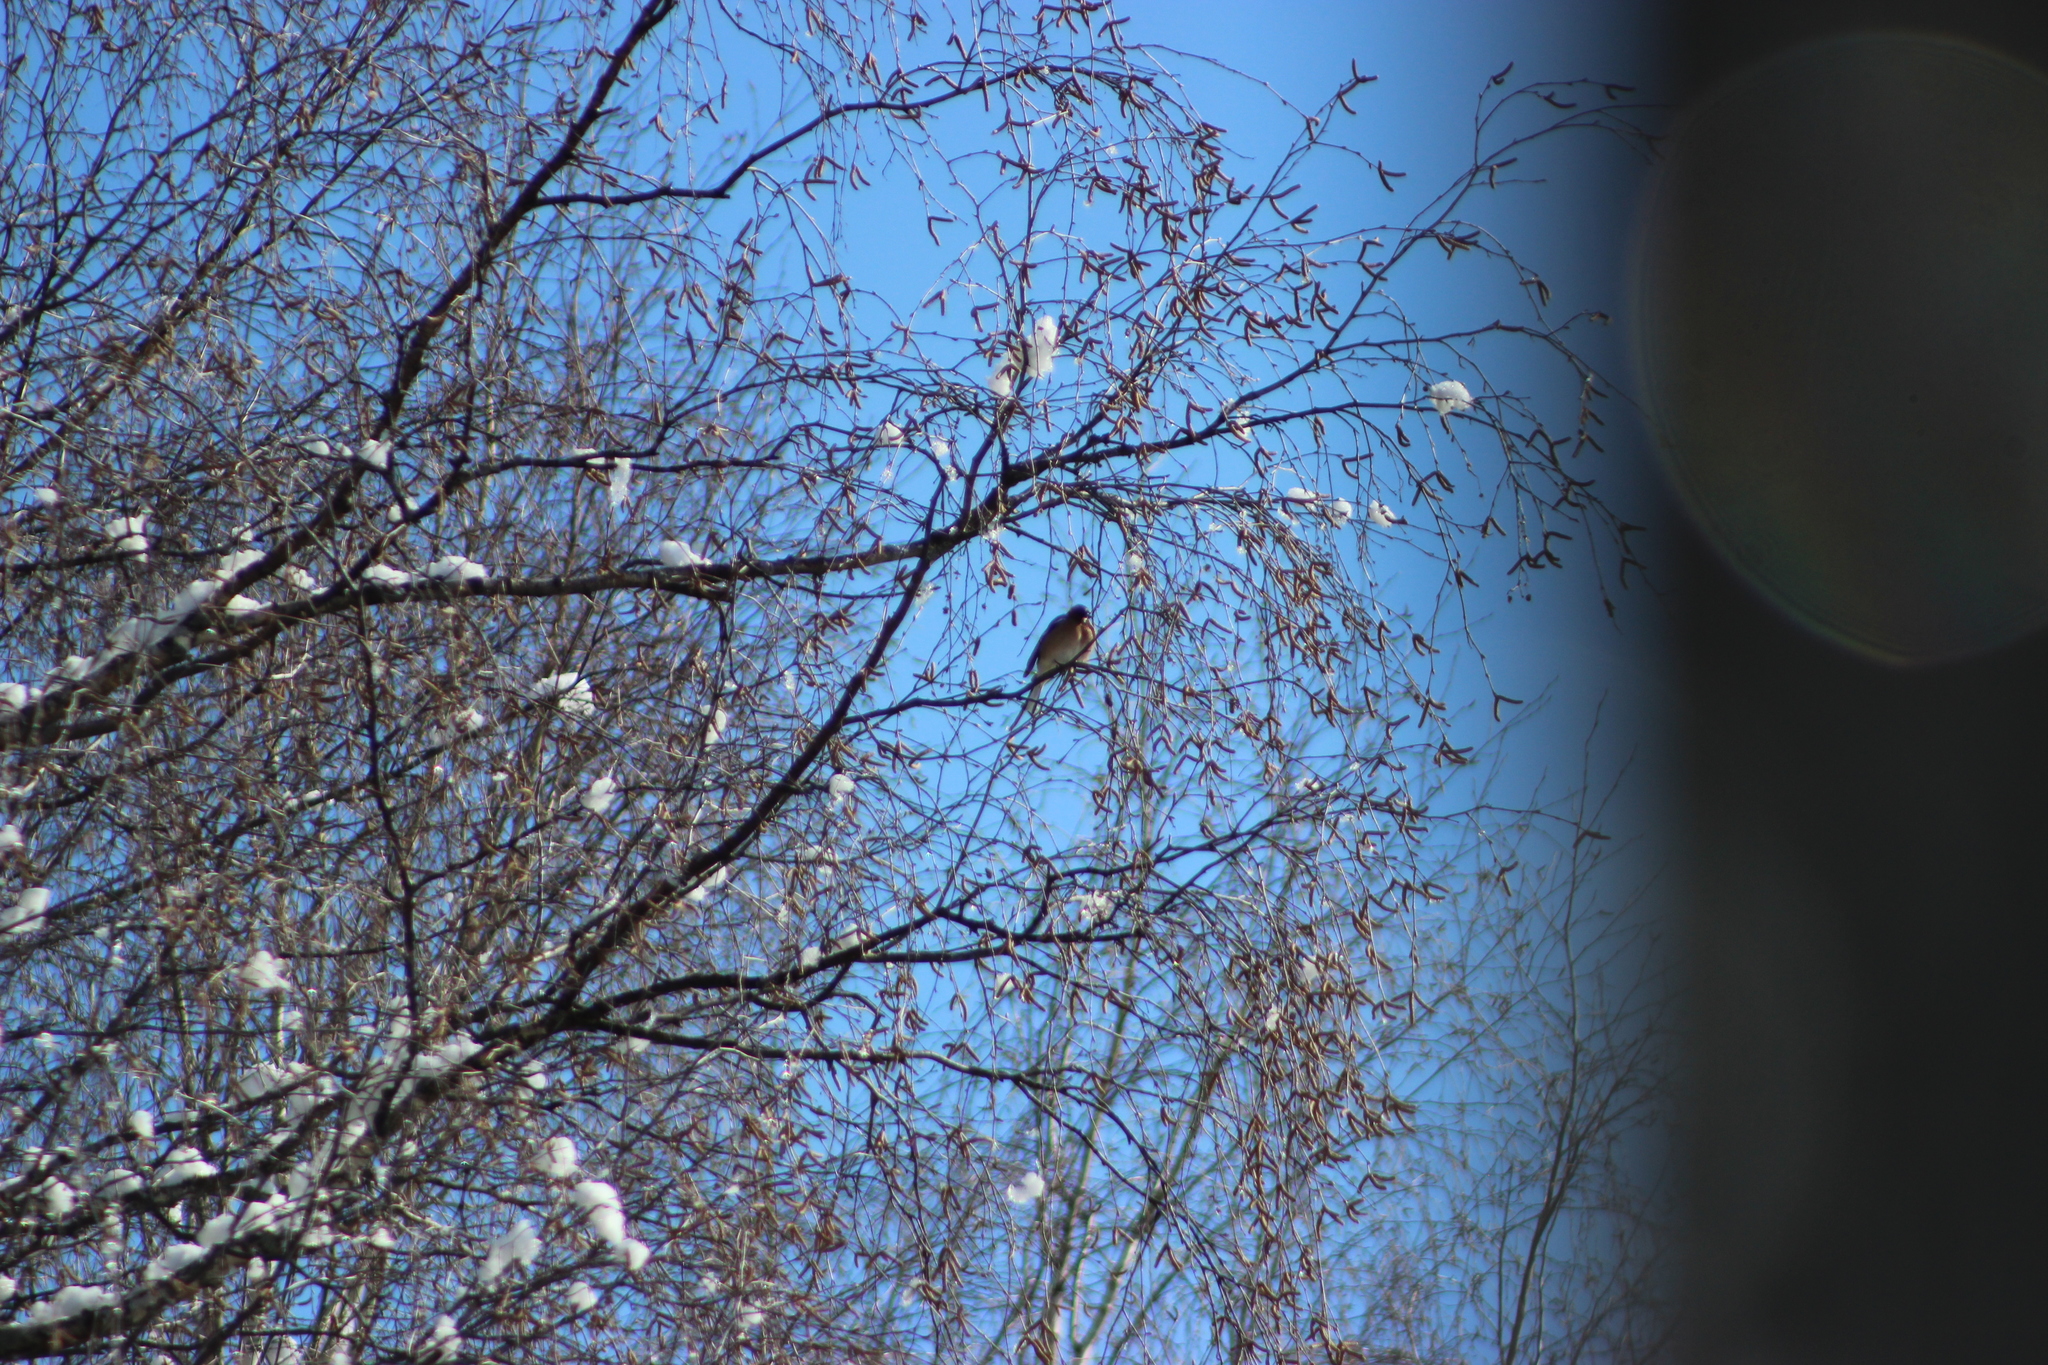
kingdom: Animalia
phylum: Chordata
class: Aves
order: Passeriformes
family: Fringillidae
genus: Fringilla
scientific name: Fringilla coelebs
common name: Common chaffinch
